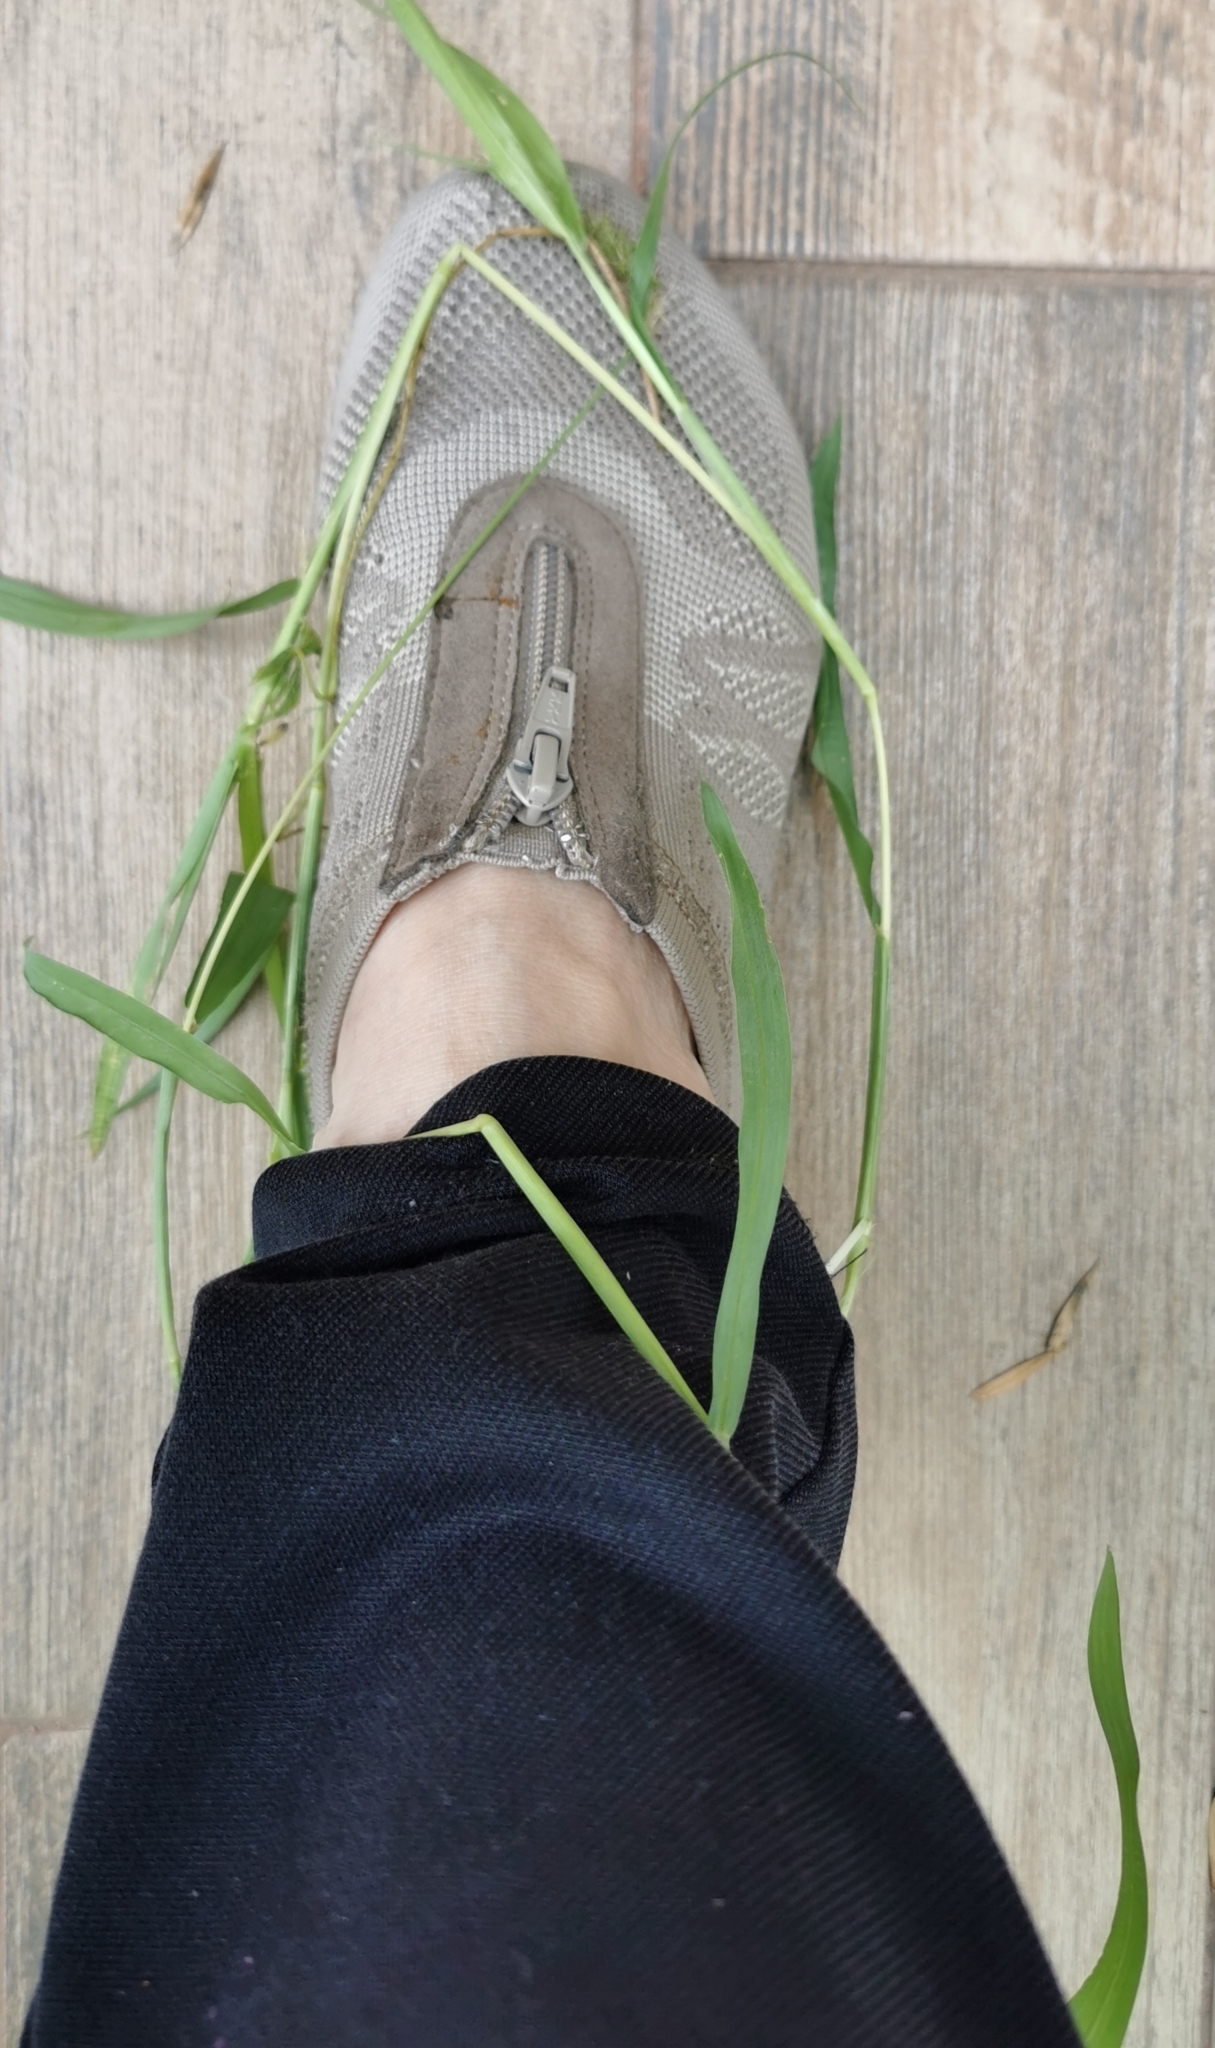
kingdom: Plantae
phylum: Tracheophyta
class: Liliopsida
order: Poales
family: Poaceae
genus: Setaria
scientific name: Setaria adhaerens
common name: Adherent bristle-grass
